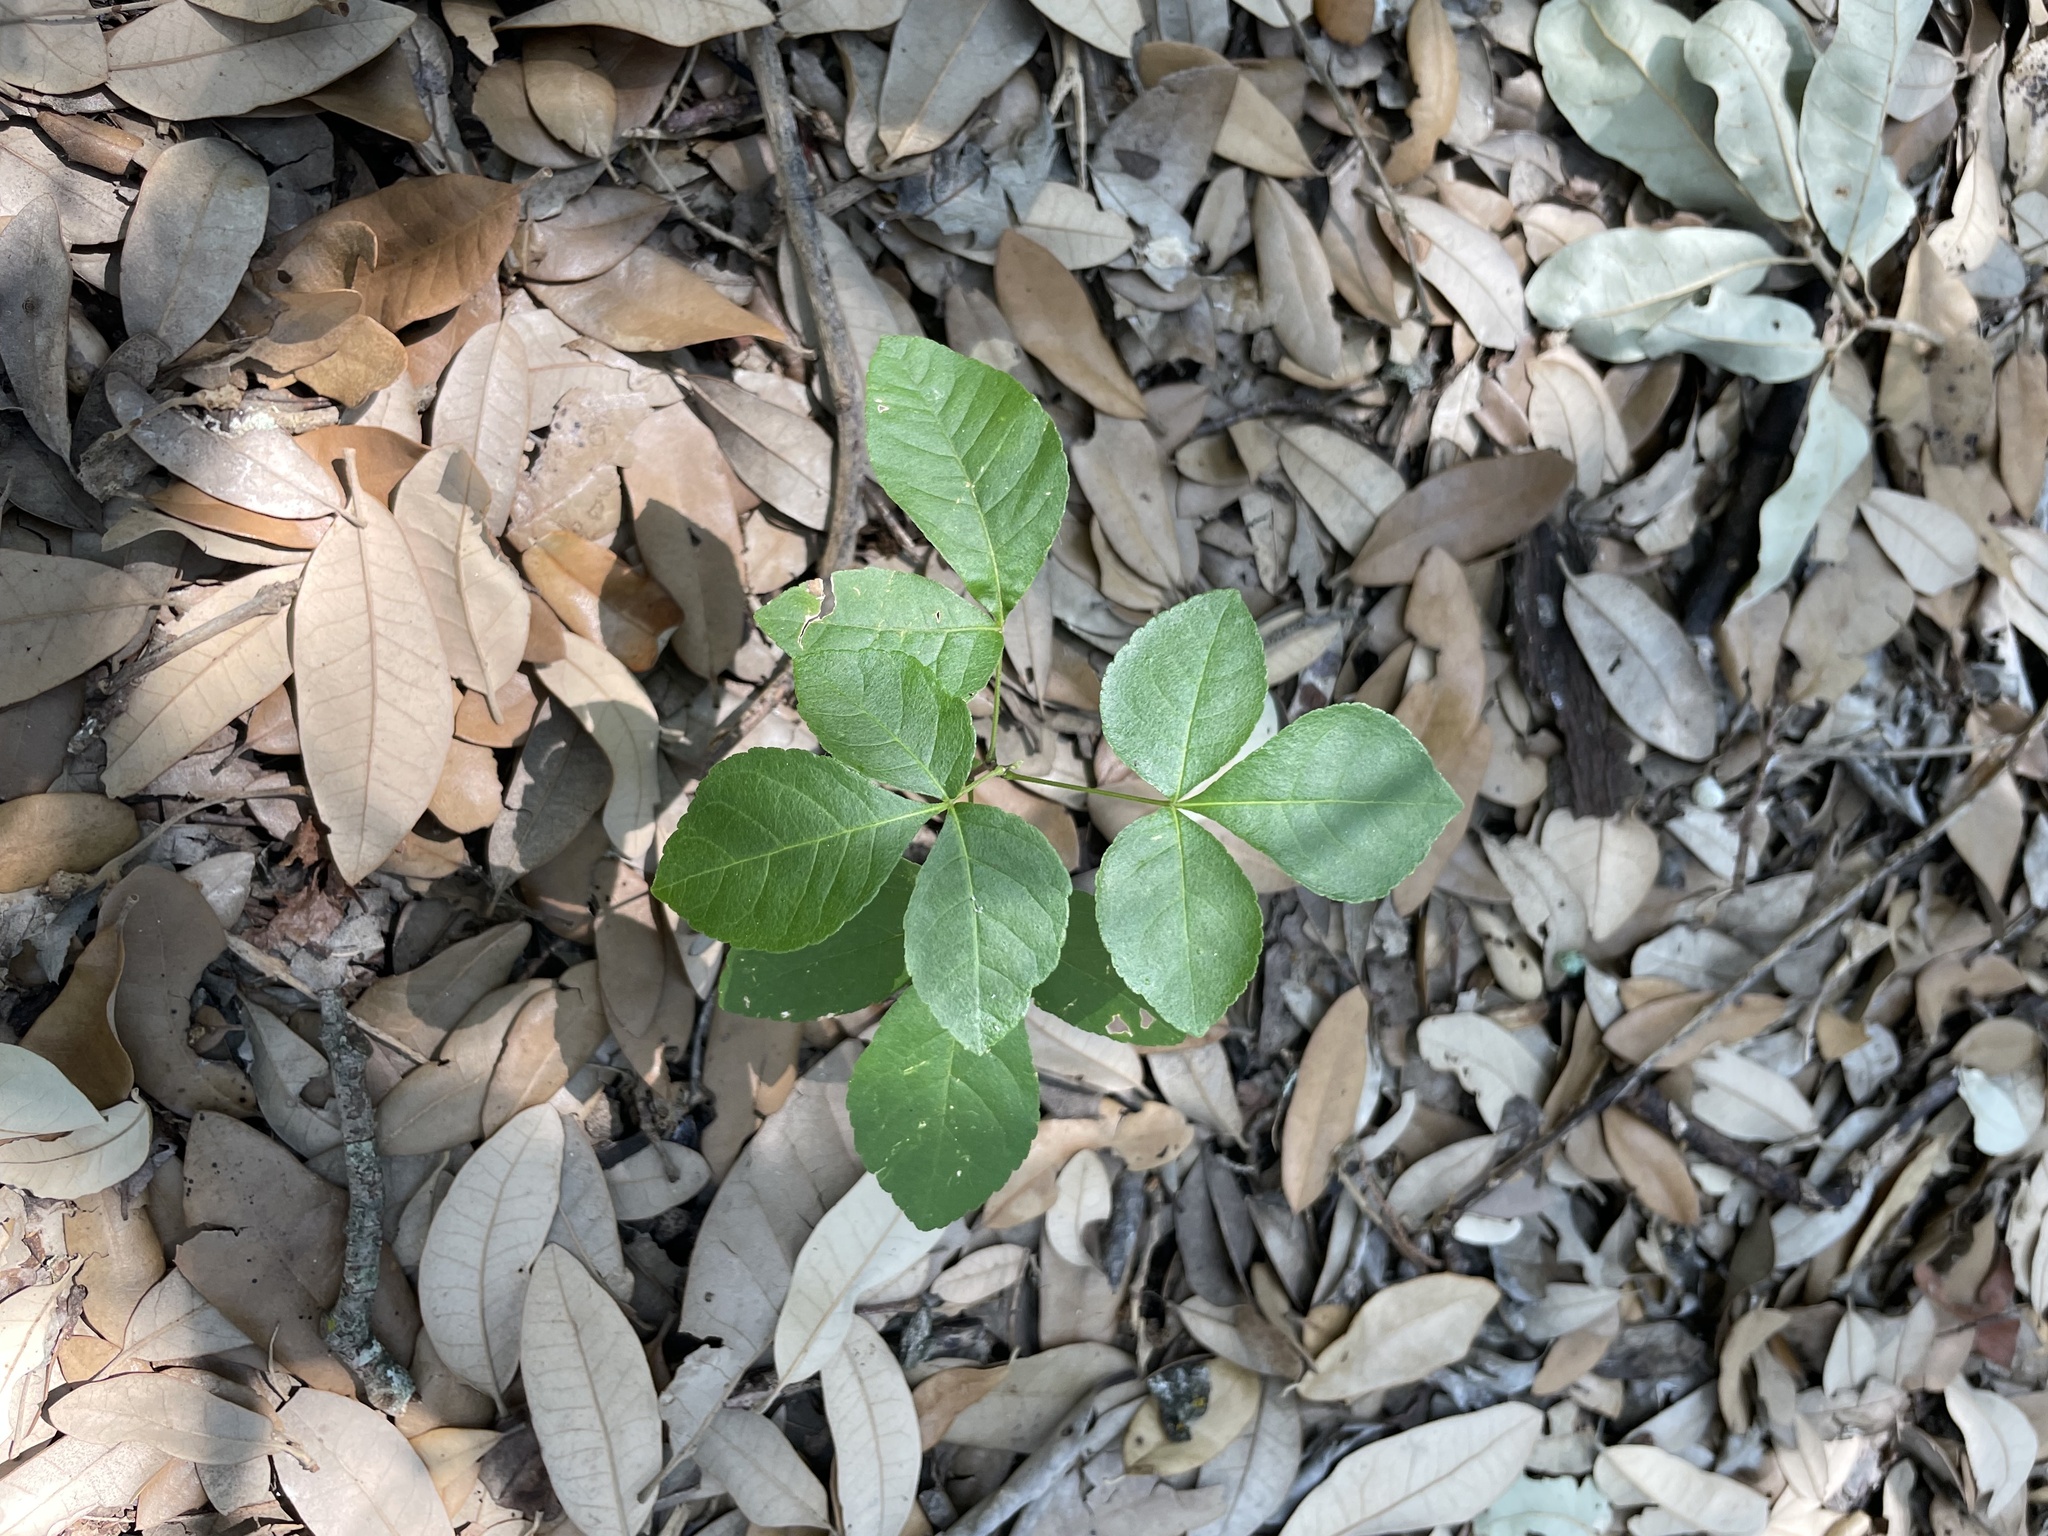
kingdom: Plantae
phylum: Tracheophyta
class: Magnoliopsida
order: Sapindales
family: Rutaceae
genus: Ptelea
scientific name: Ptelea trifoliata
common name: Common hop-tree
